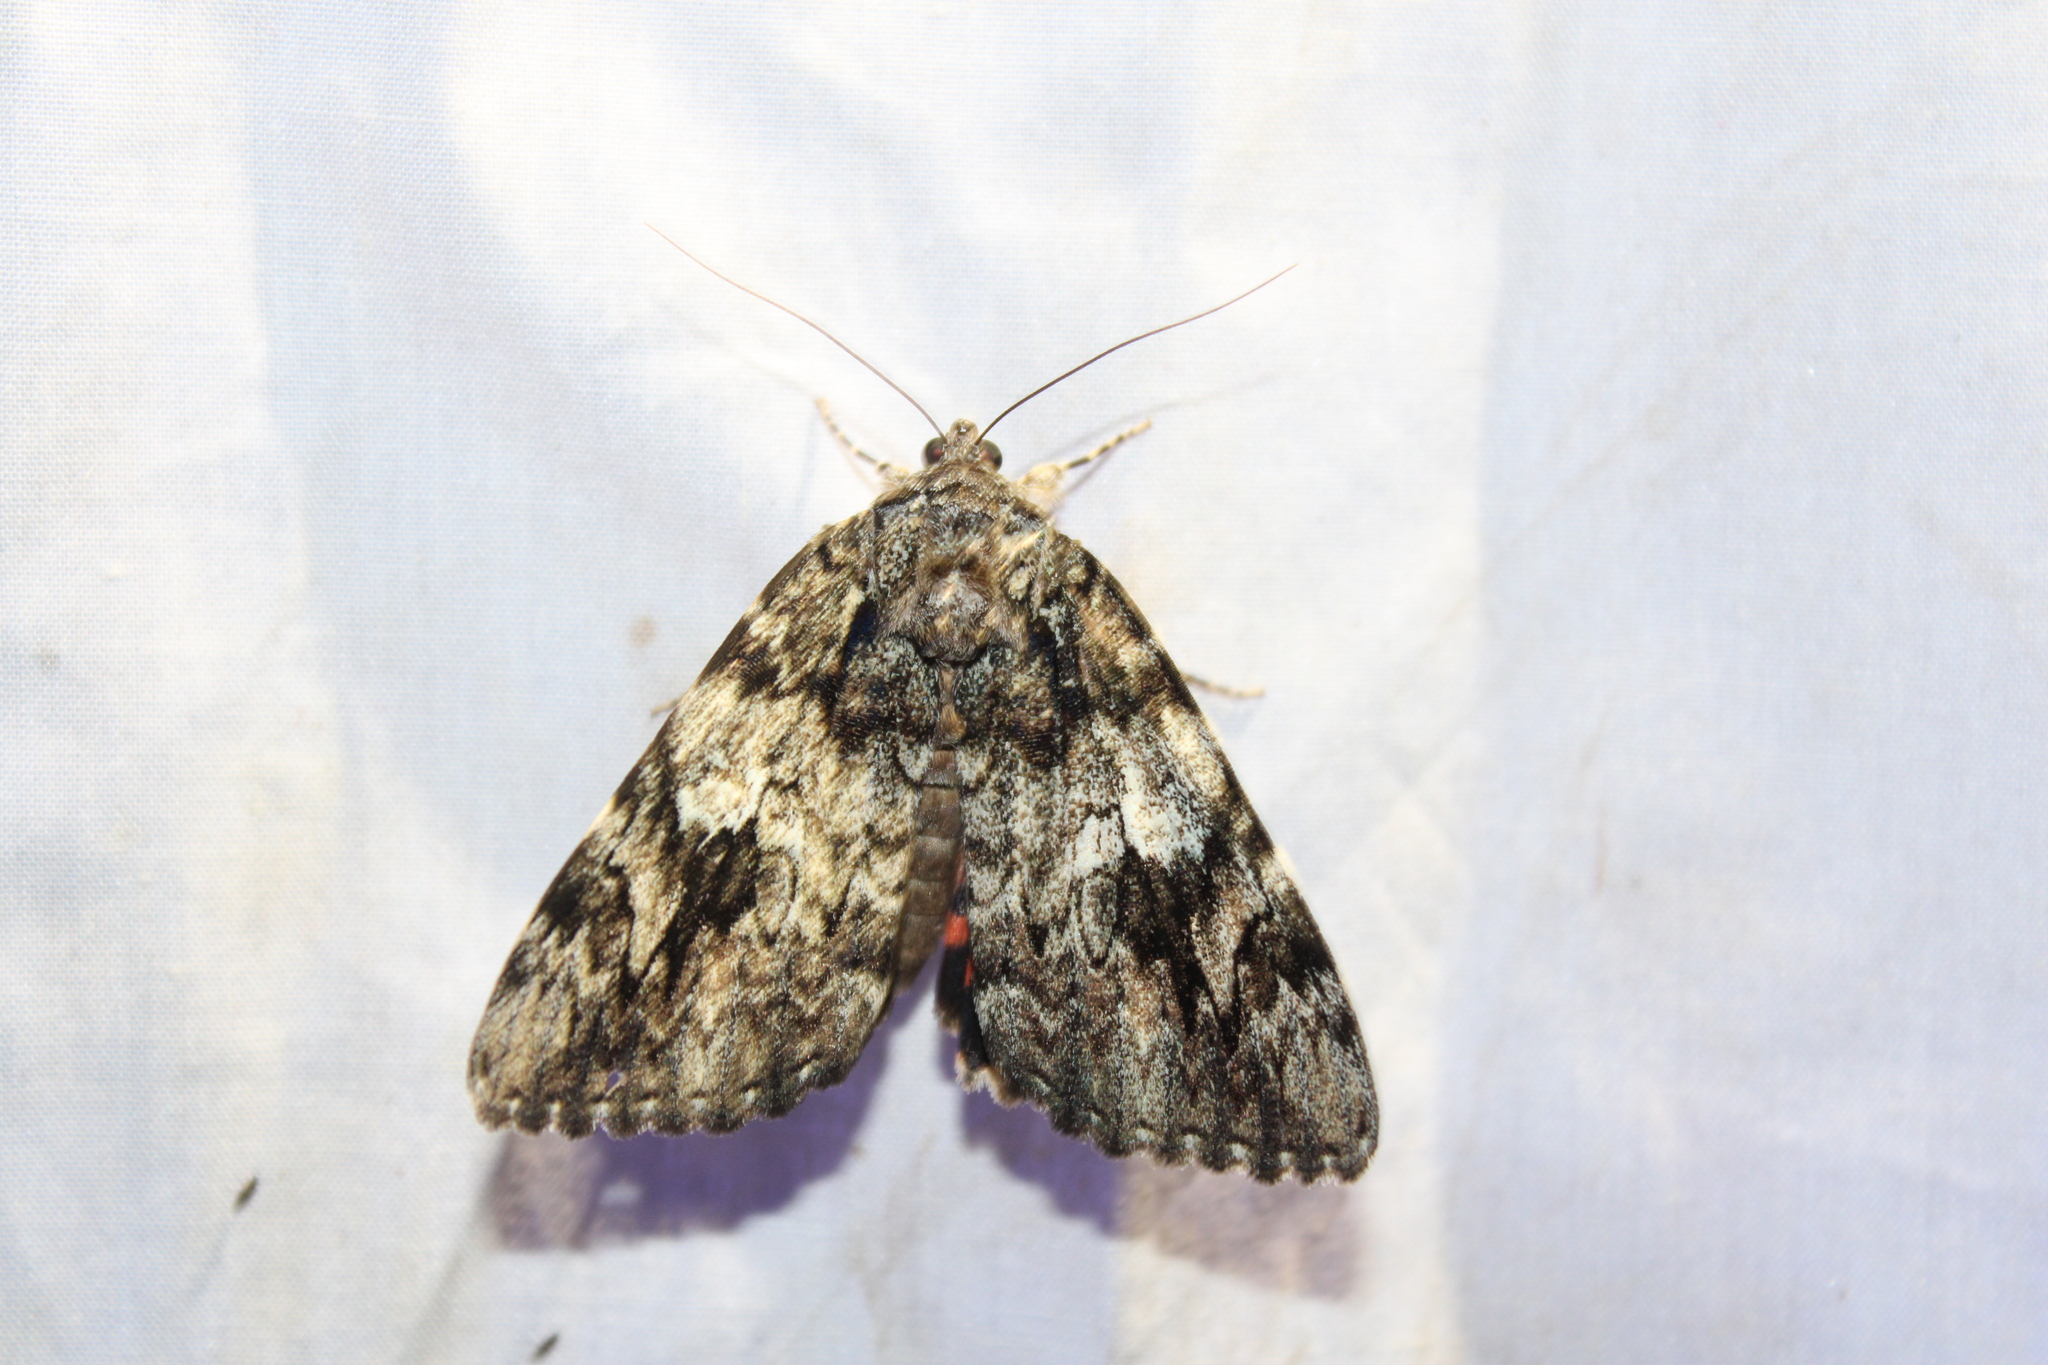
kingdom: Animalia
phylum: Arthropoda
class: Insecta
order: Lepidoptera
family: Erebidae
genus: Catocala
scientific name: Catocala ilia
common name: Ilia underwing
